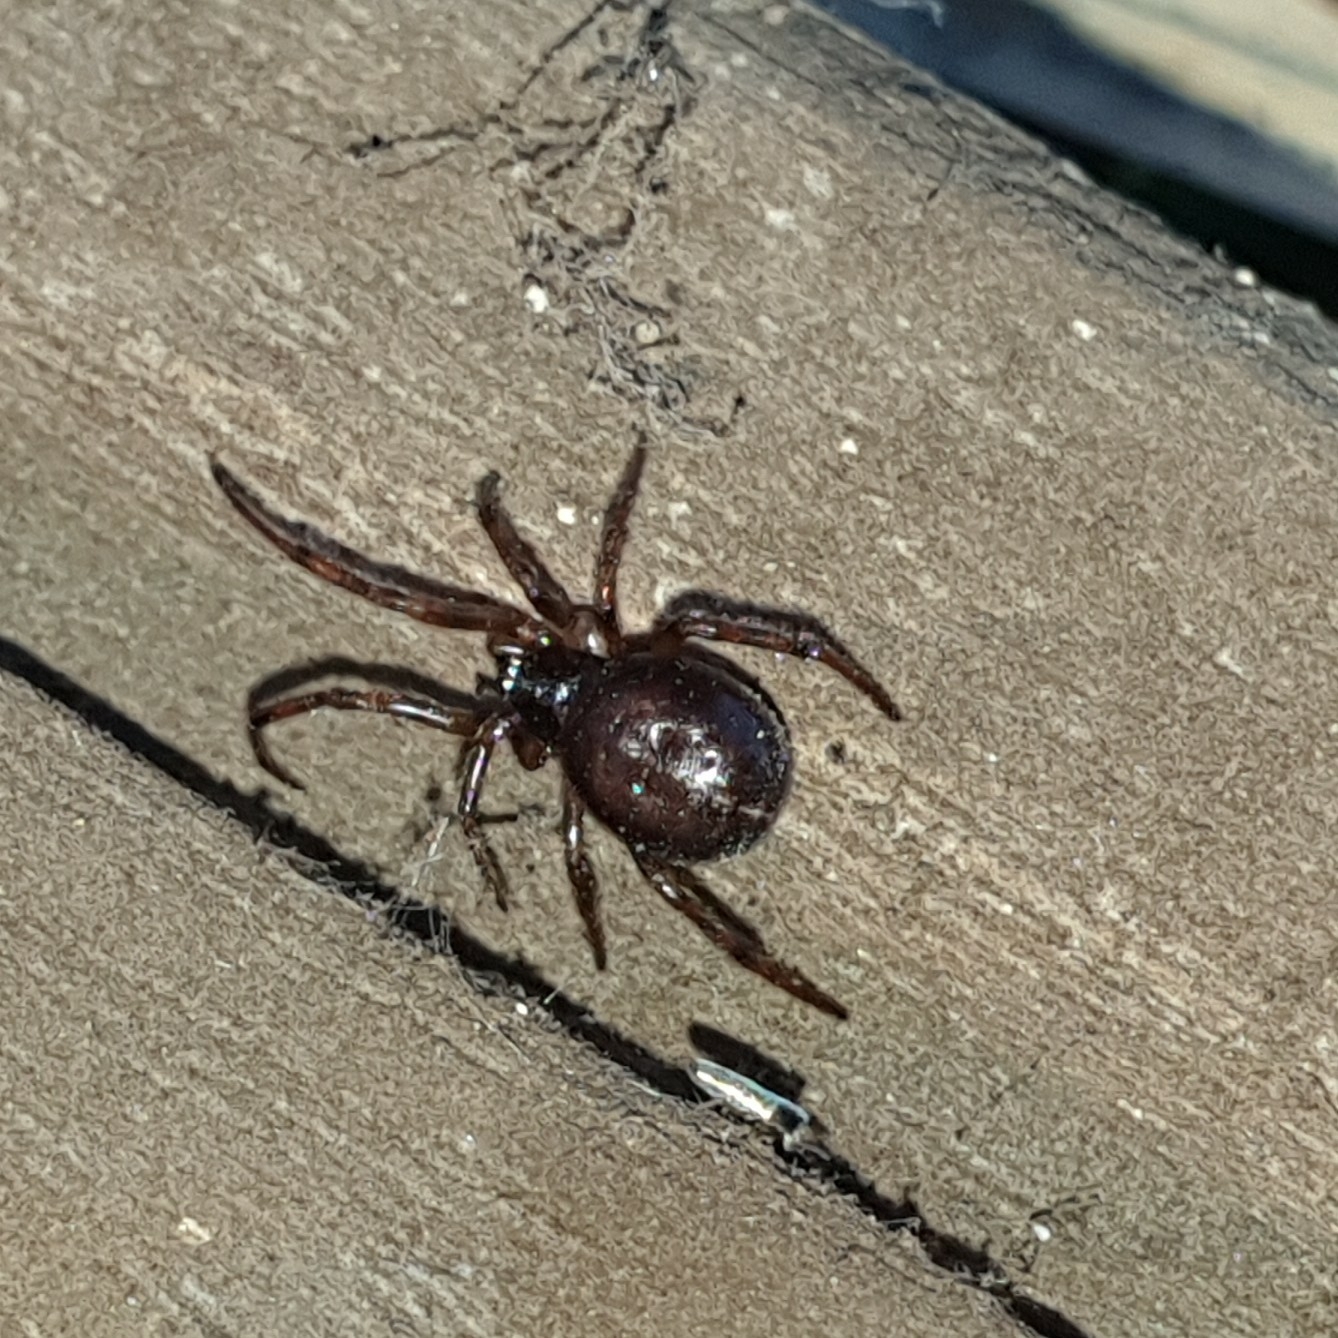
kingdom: Animalia
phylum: Arthropoda
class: Arachnida
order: Araneae
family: Theridiidae
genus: Steatoda
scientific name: Steatoda bipunctata
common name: False widow
